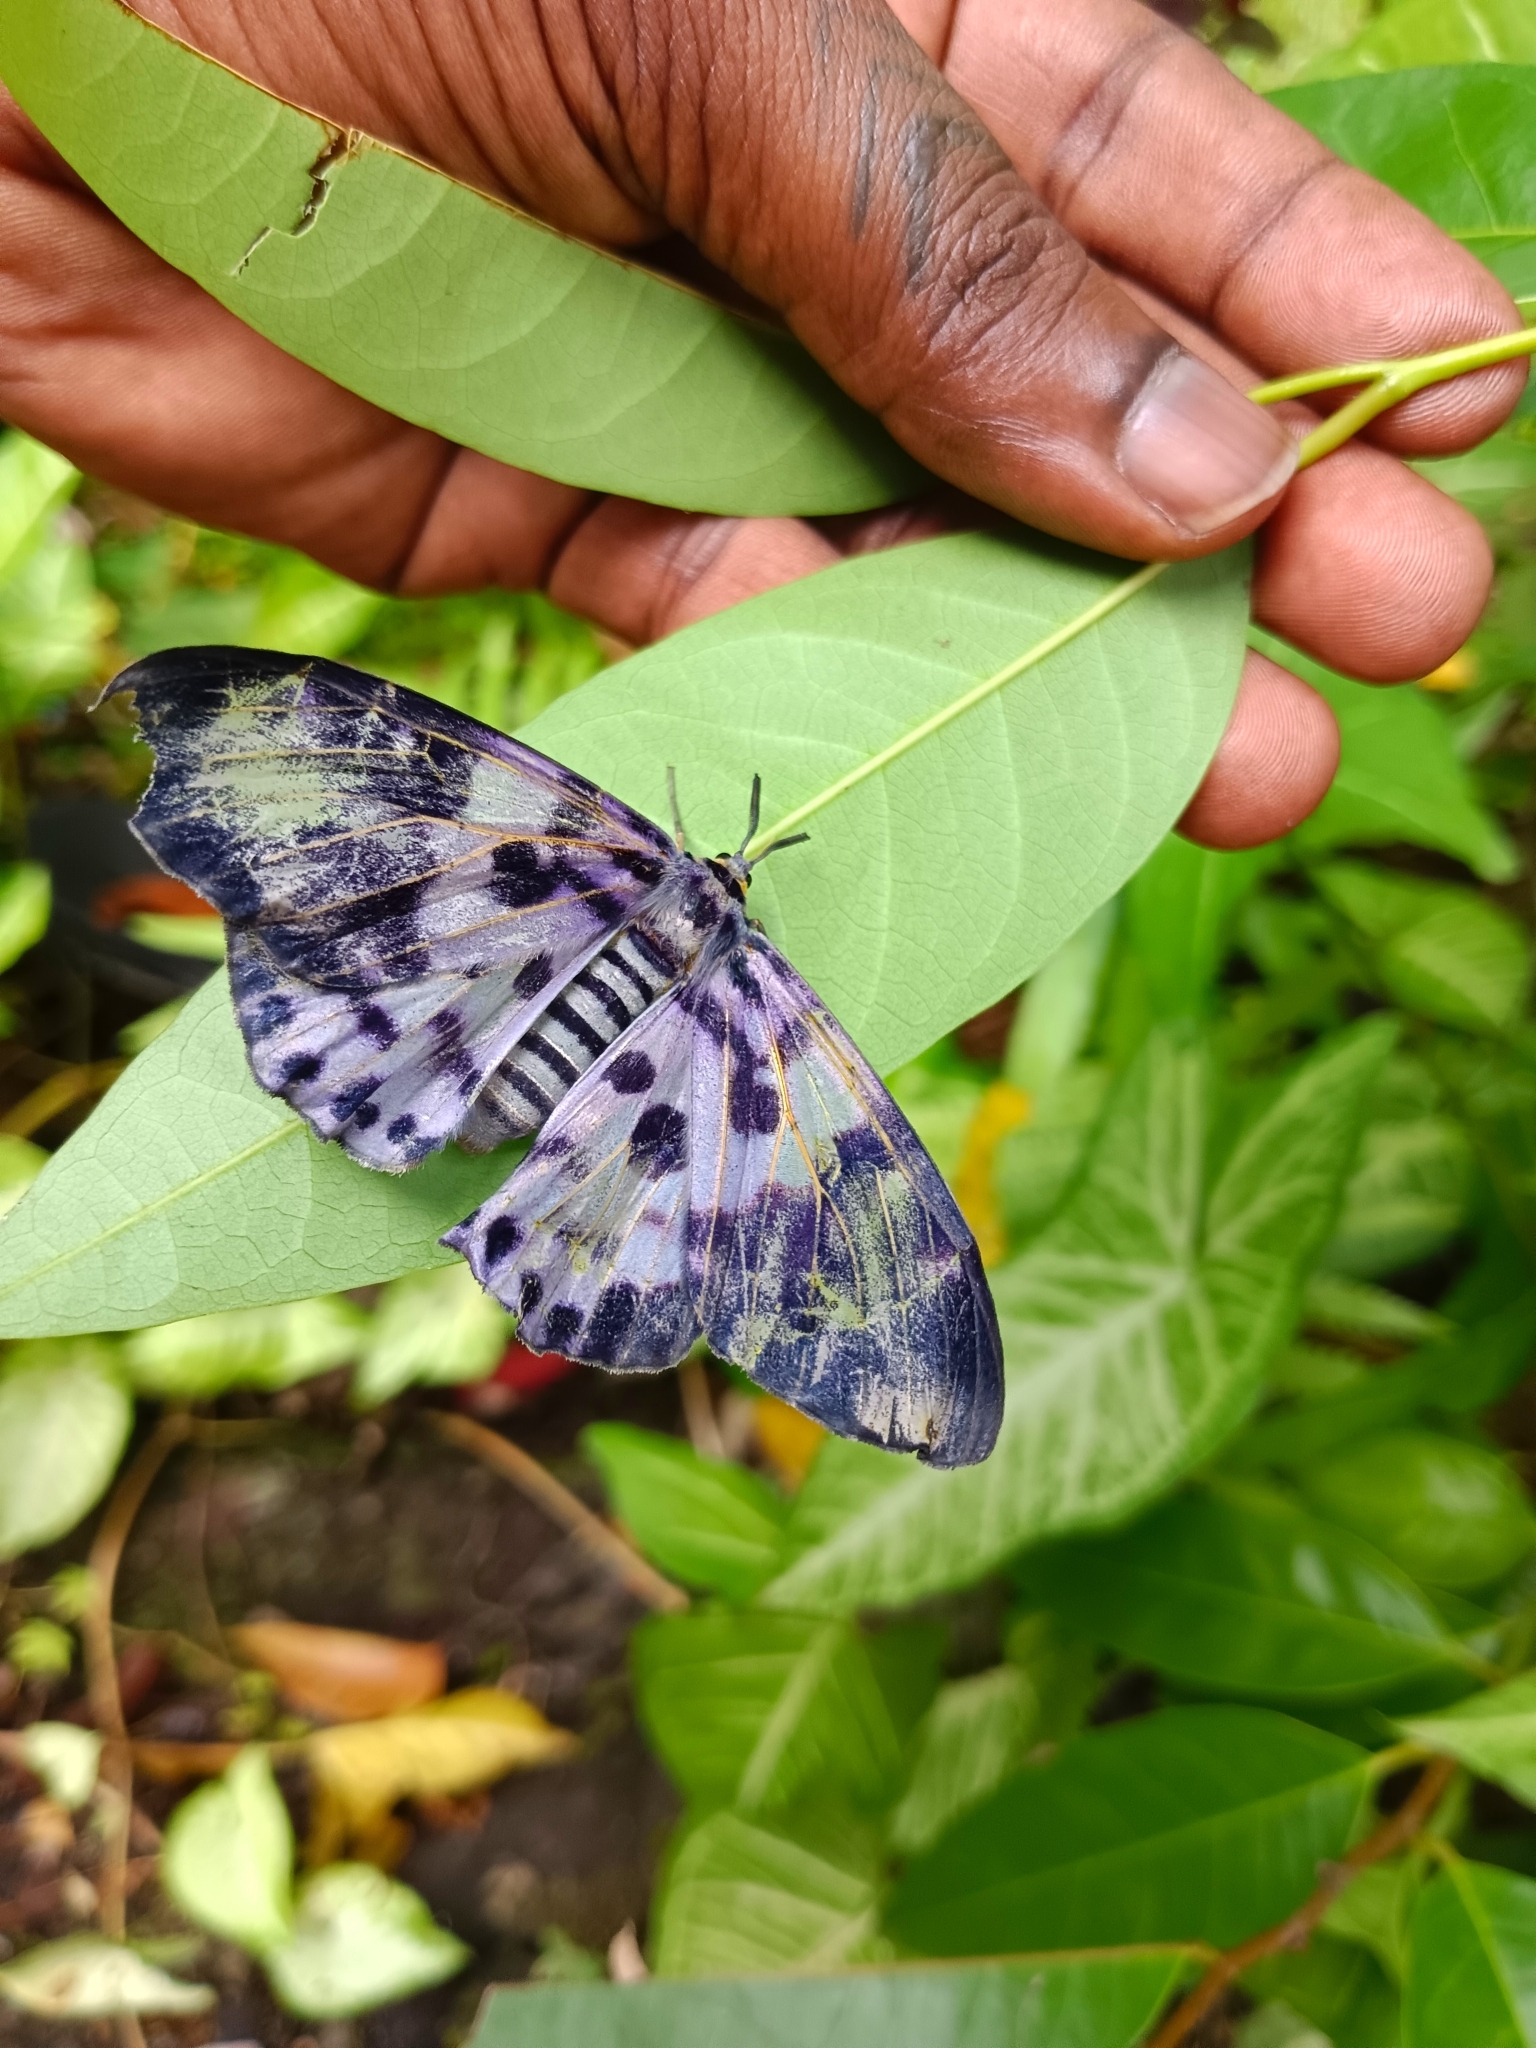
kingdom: Animalia
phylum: Arthropoda
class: Insecta
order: Lepidoptera
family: Geometridae
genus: Dysphania
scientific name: Dysphania percota
